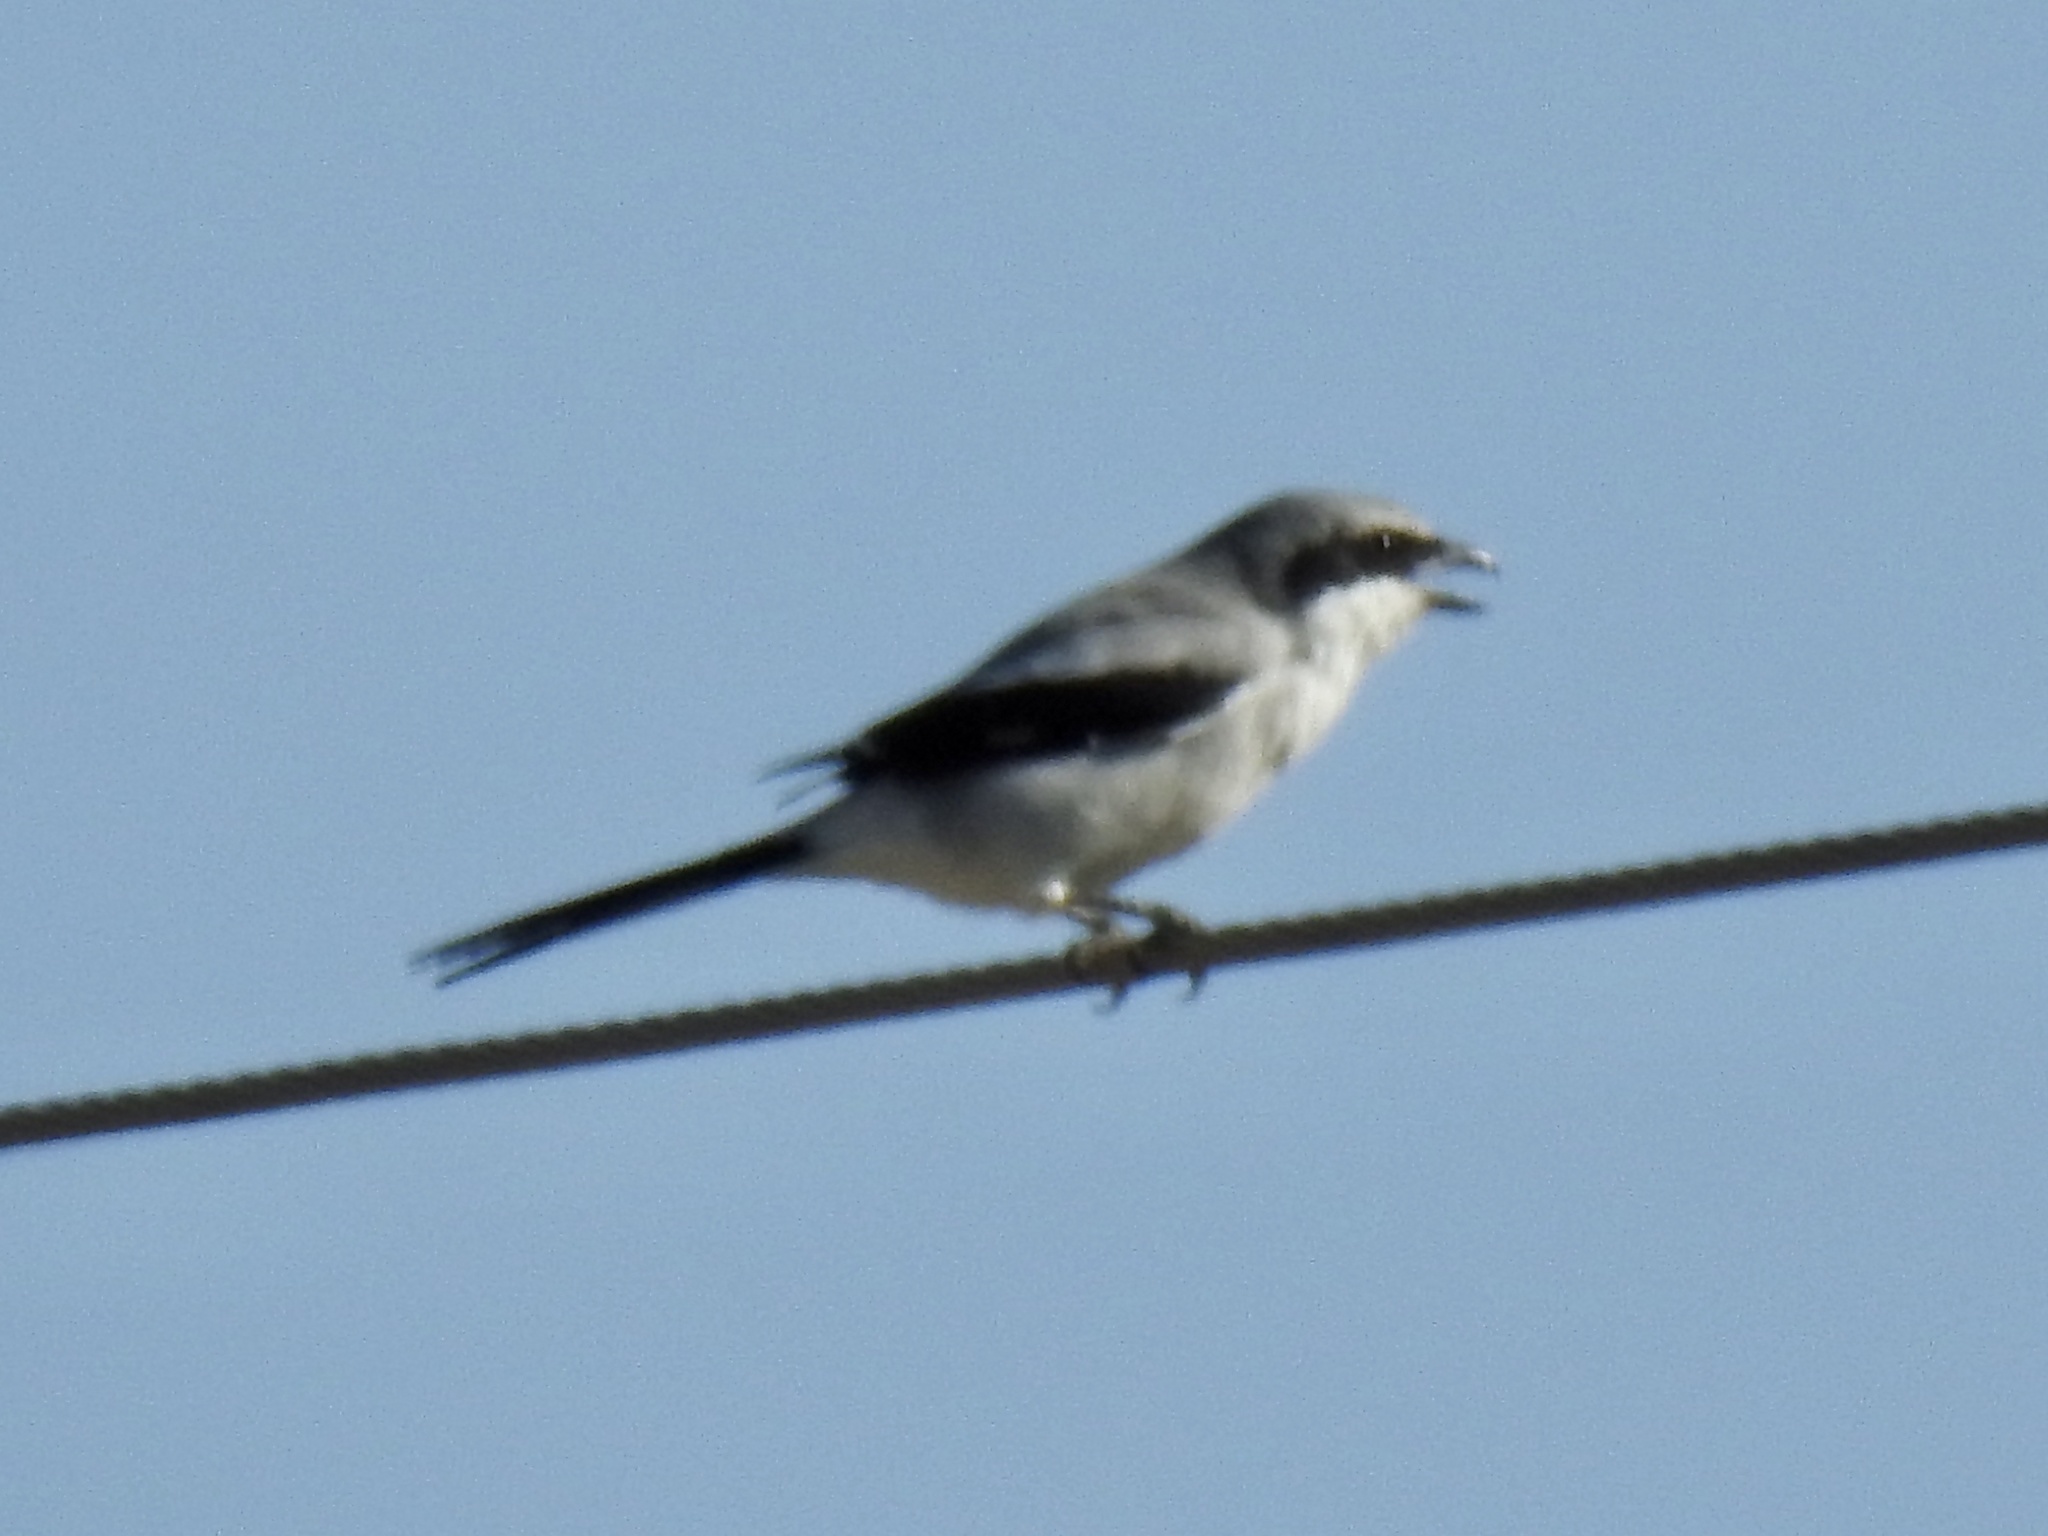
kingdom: Animalia
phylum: Chordata
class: Aves
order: Passeriformes
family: Laniidae
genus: Lanius
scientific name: Lanius ludovicianus
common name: Loggerhead shrike
